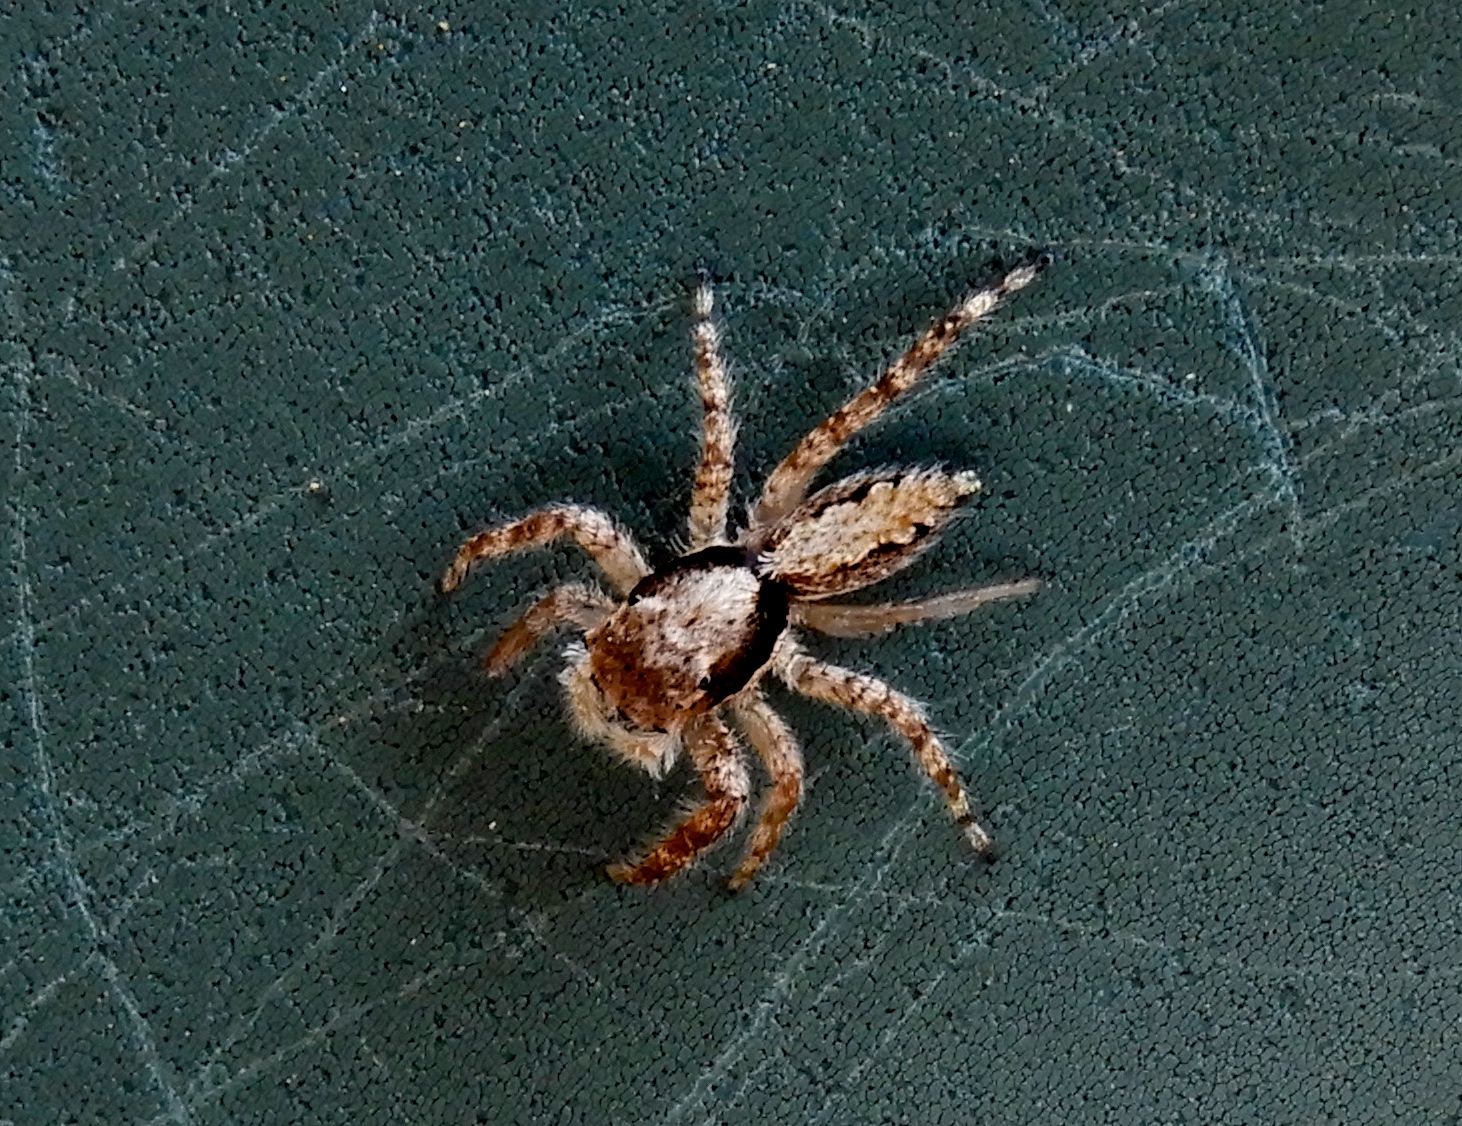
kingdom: Animalia
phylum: Arthropoda
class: Arachnida
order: Araneae
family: Salticidae
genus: Balmaceda
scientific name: Balmaceda
